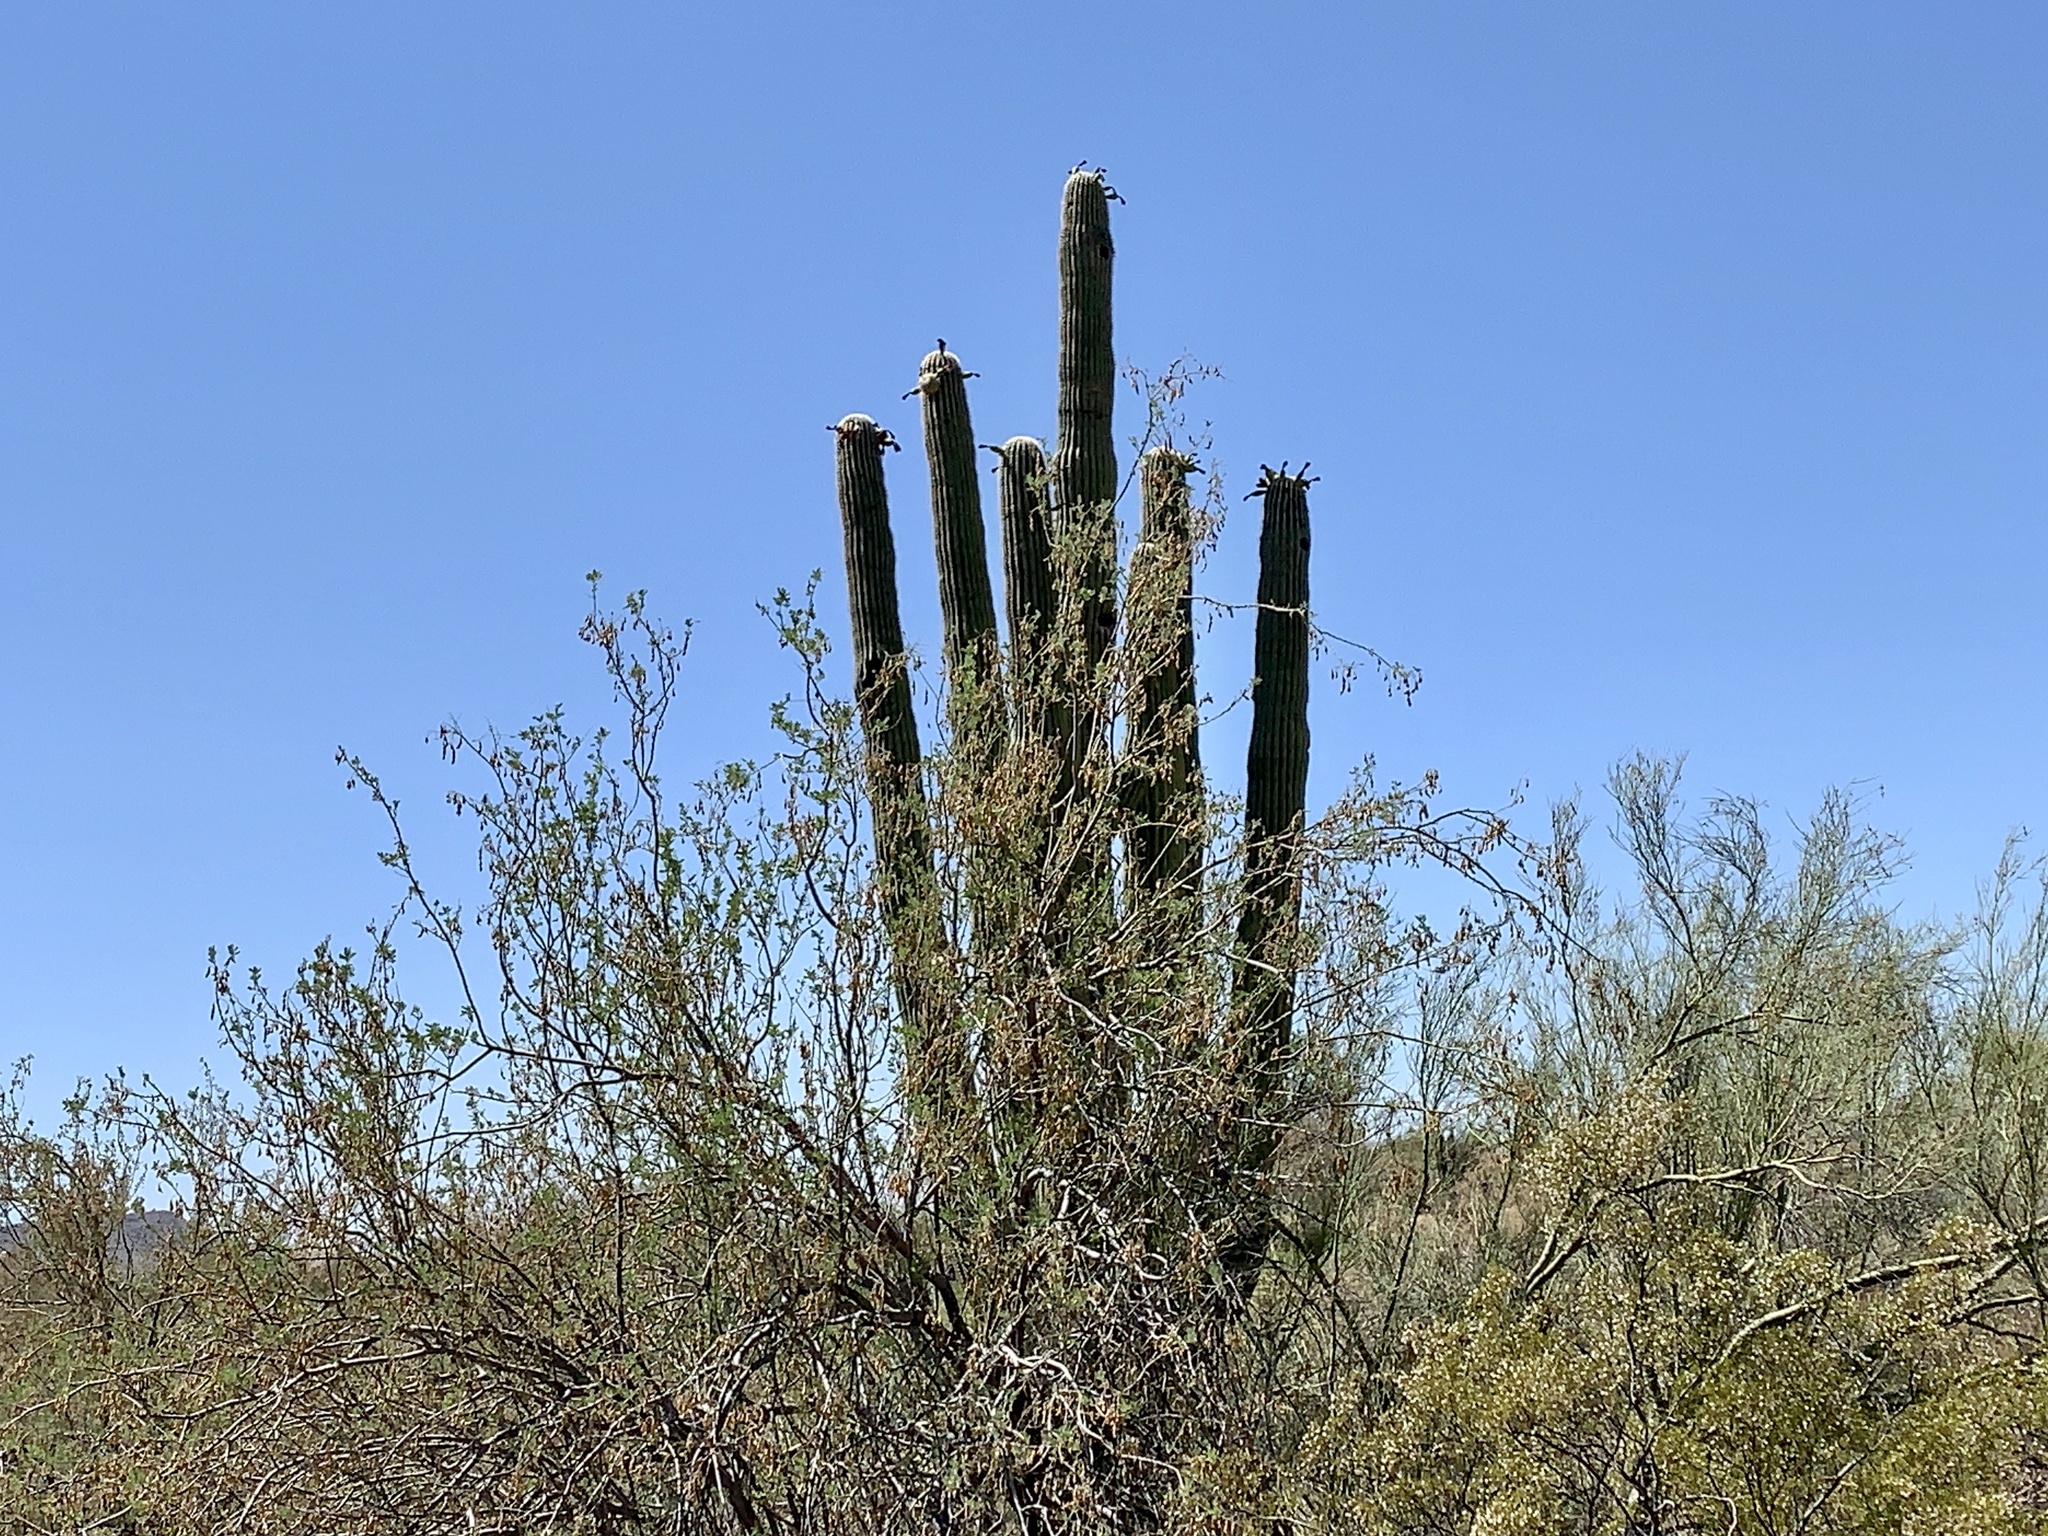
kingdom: Plantae
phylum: Tracheophyta
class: Magnoliopsida
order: Caryophyllales
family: Cactaceae
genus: Carnegiea
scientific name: Carnegiea gigantea
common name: Saguaro
